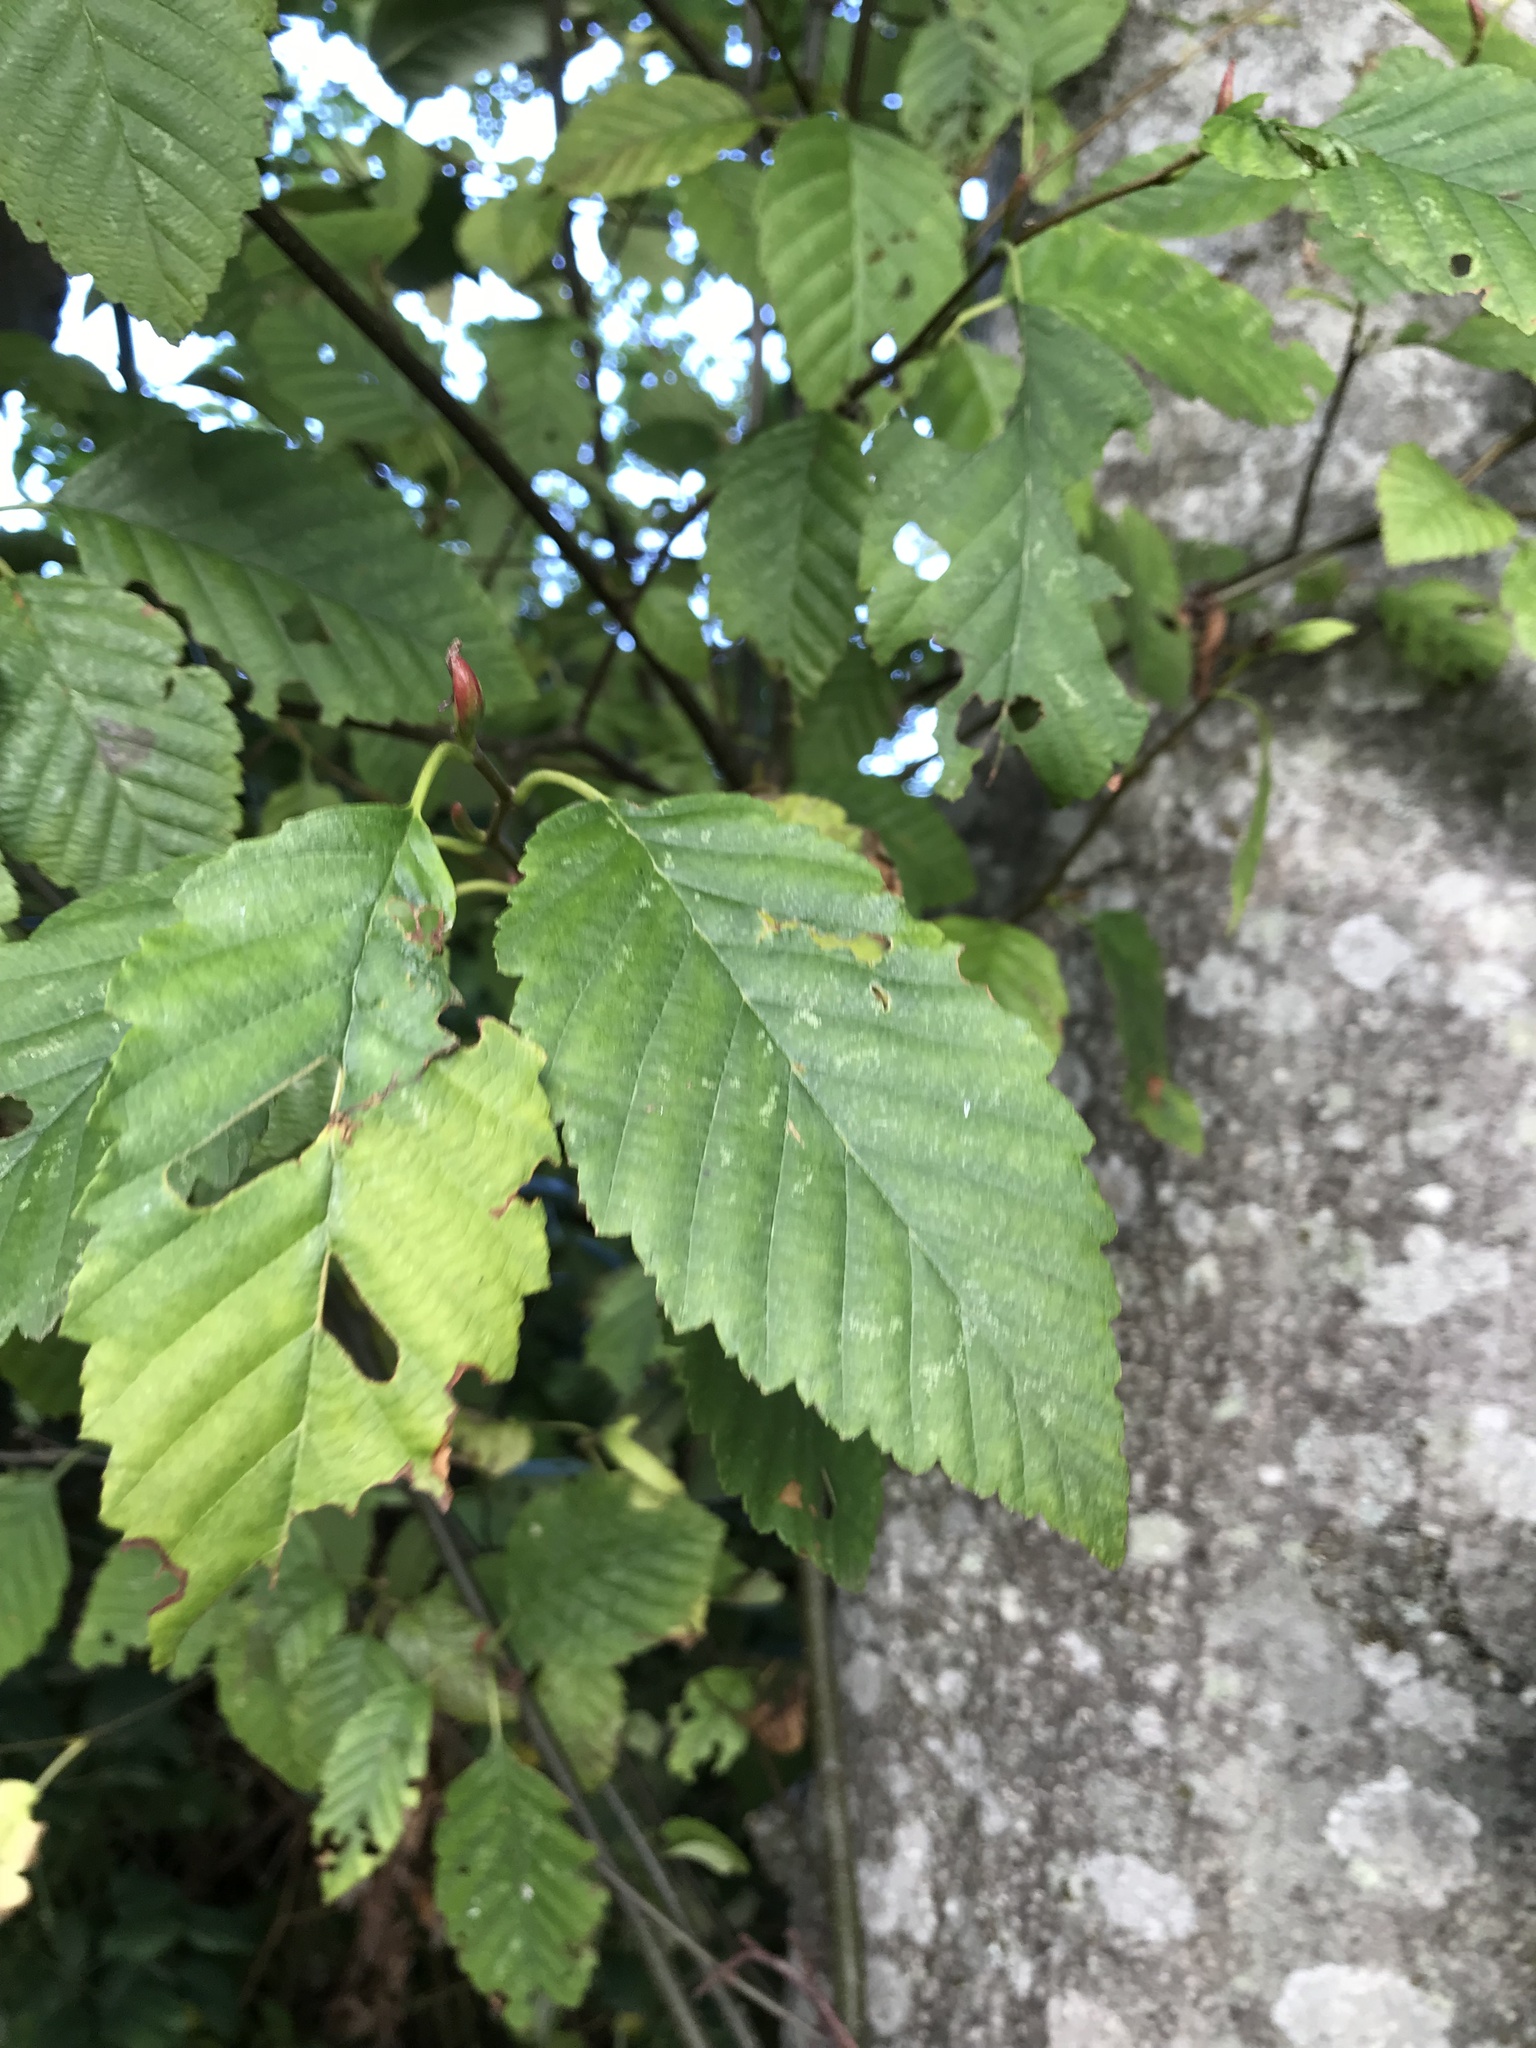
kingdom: Plantae
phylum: Tracheophyta
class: Magnoliopsida
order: Fagales
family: Betulaceae
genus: Alnus
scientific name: Alnus rubra
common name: Red alder
